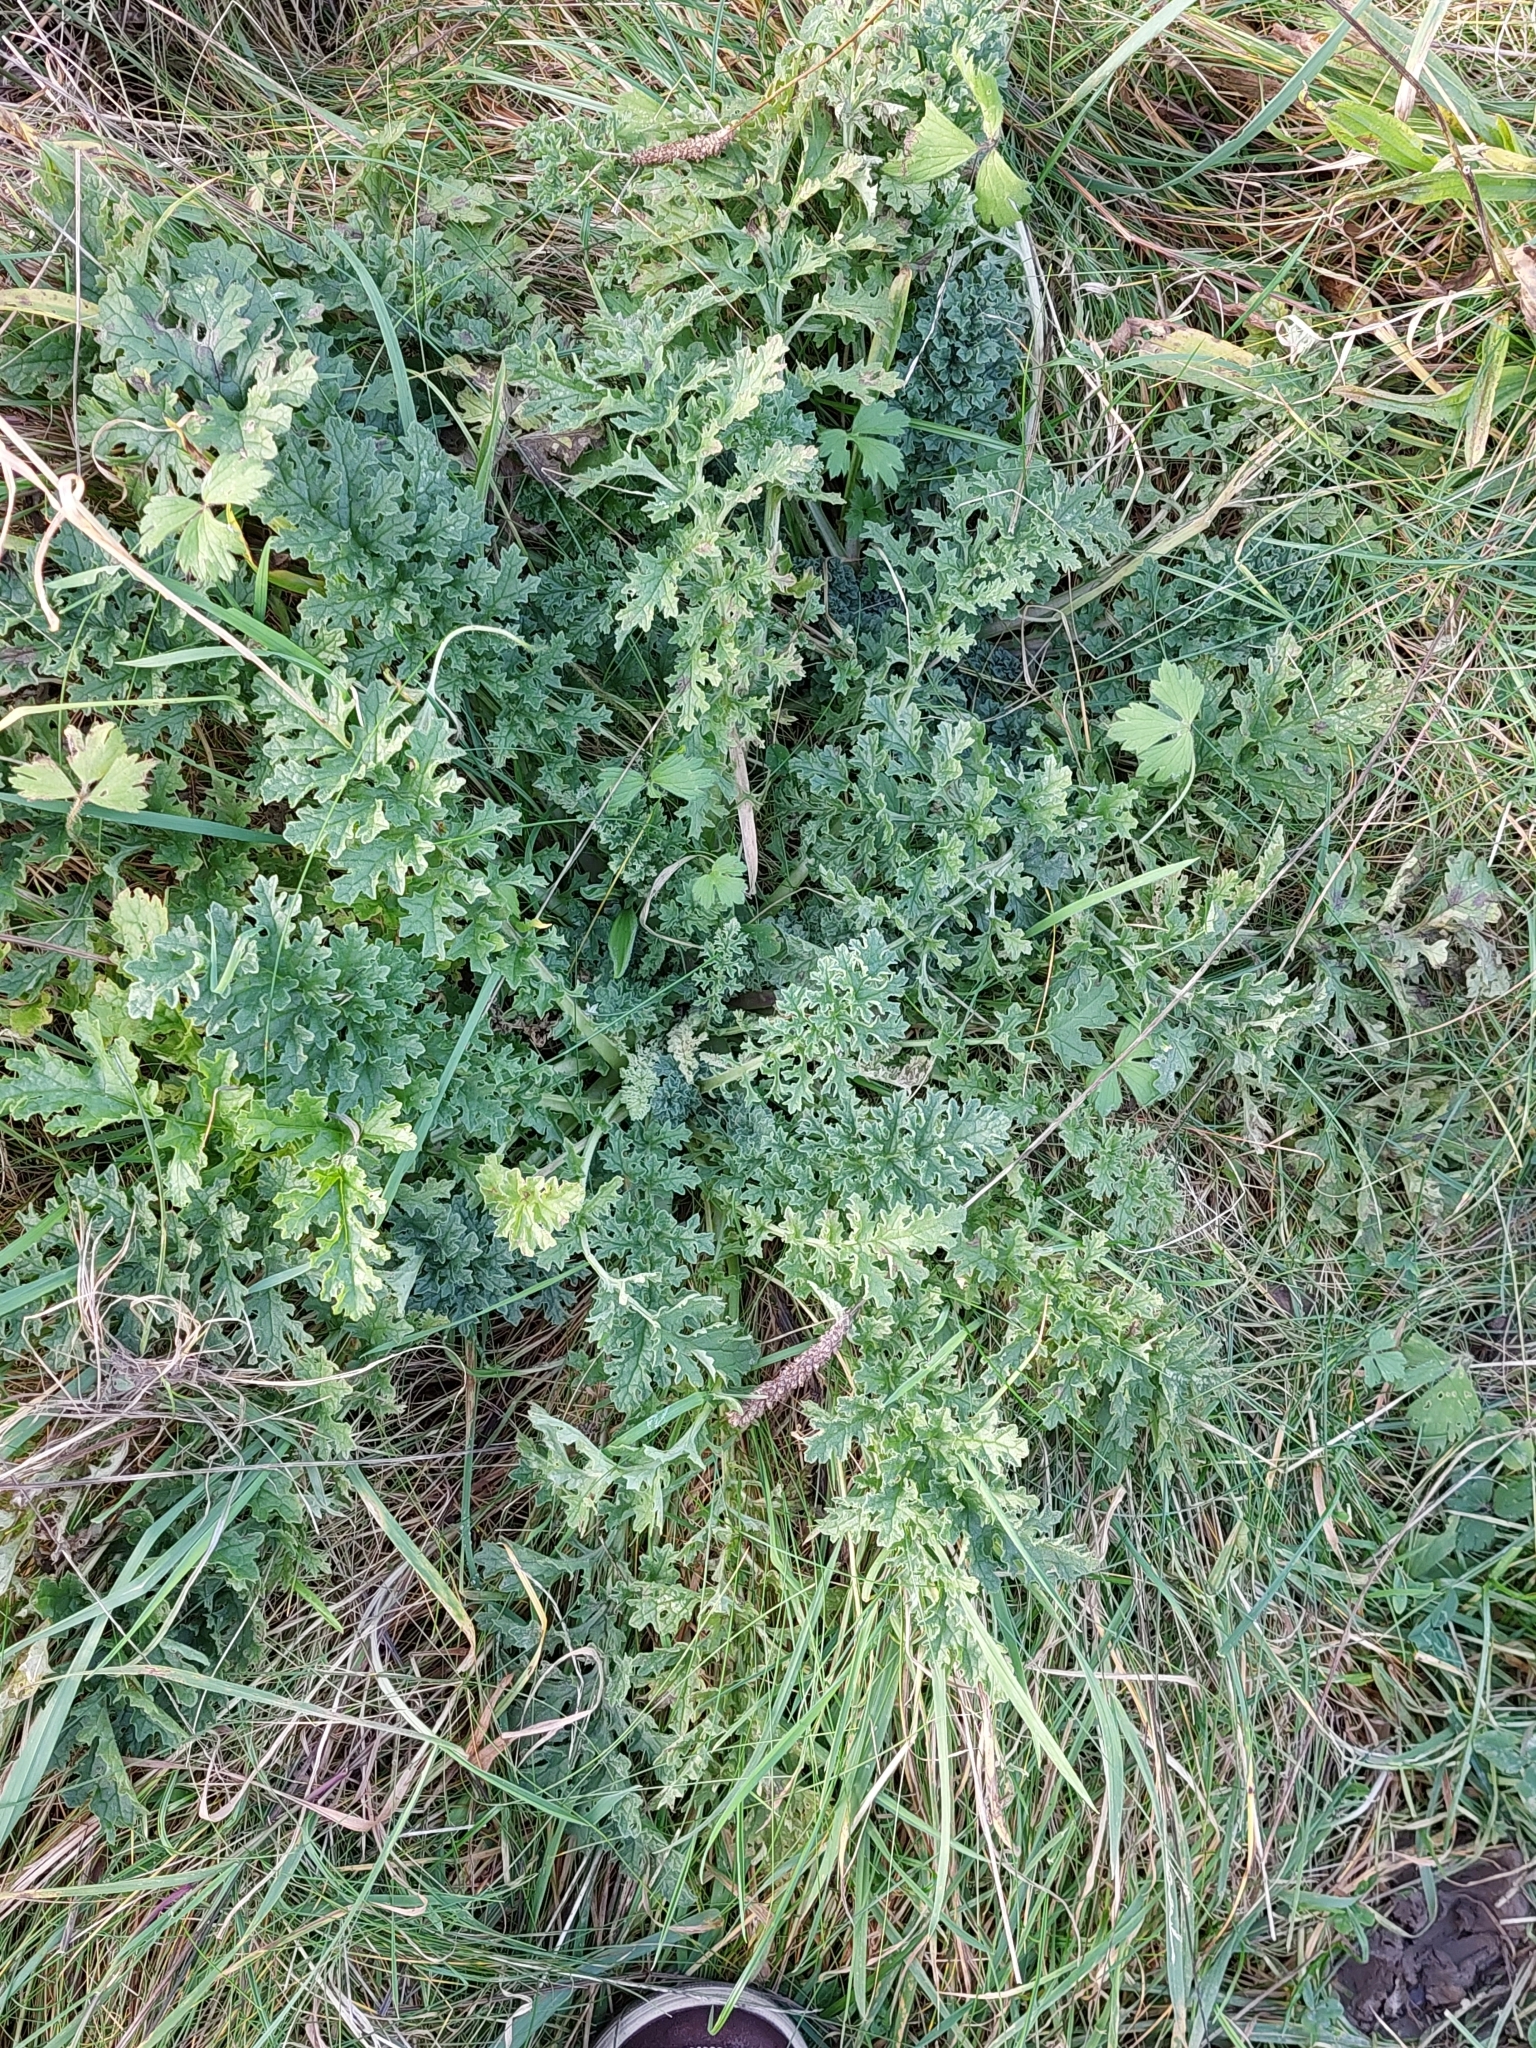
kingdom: Plantae
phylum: Tracheophyta
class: Magnoliopsida
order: Asterales
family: Asteraceae
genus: Jacobaea
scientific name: Jacobaea vulgaris
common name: Stinking willie
